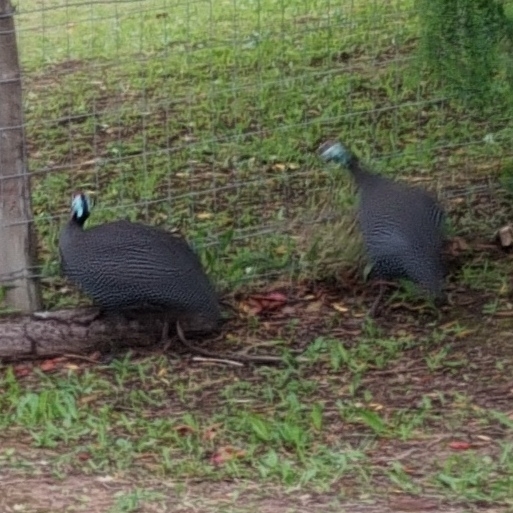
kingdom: Animalia
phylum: Chordata
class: Aves
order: Galliformes
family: Numididae
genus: Numida
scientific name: Numida meleagris
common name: Helmeted guineafowl
